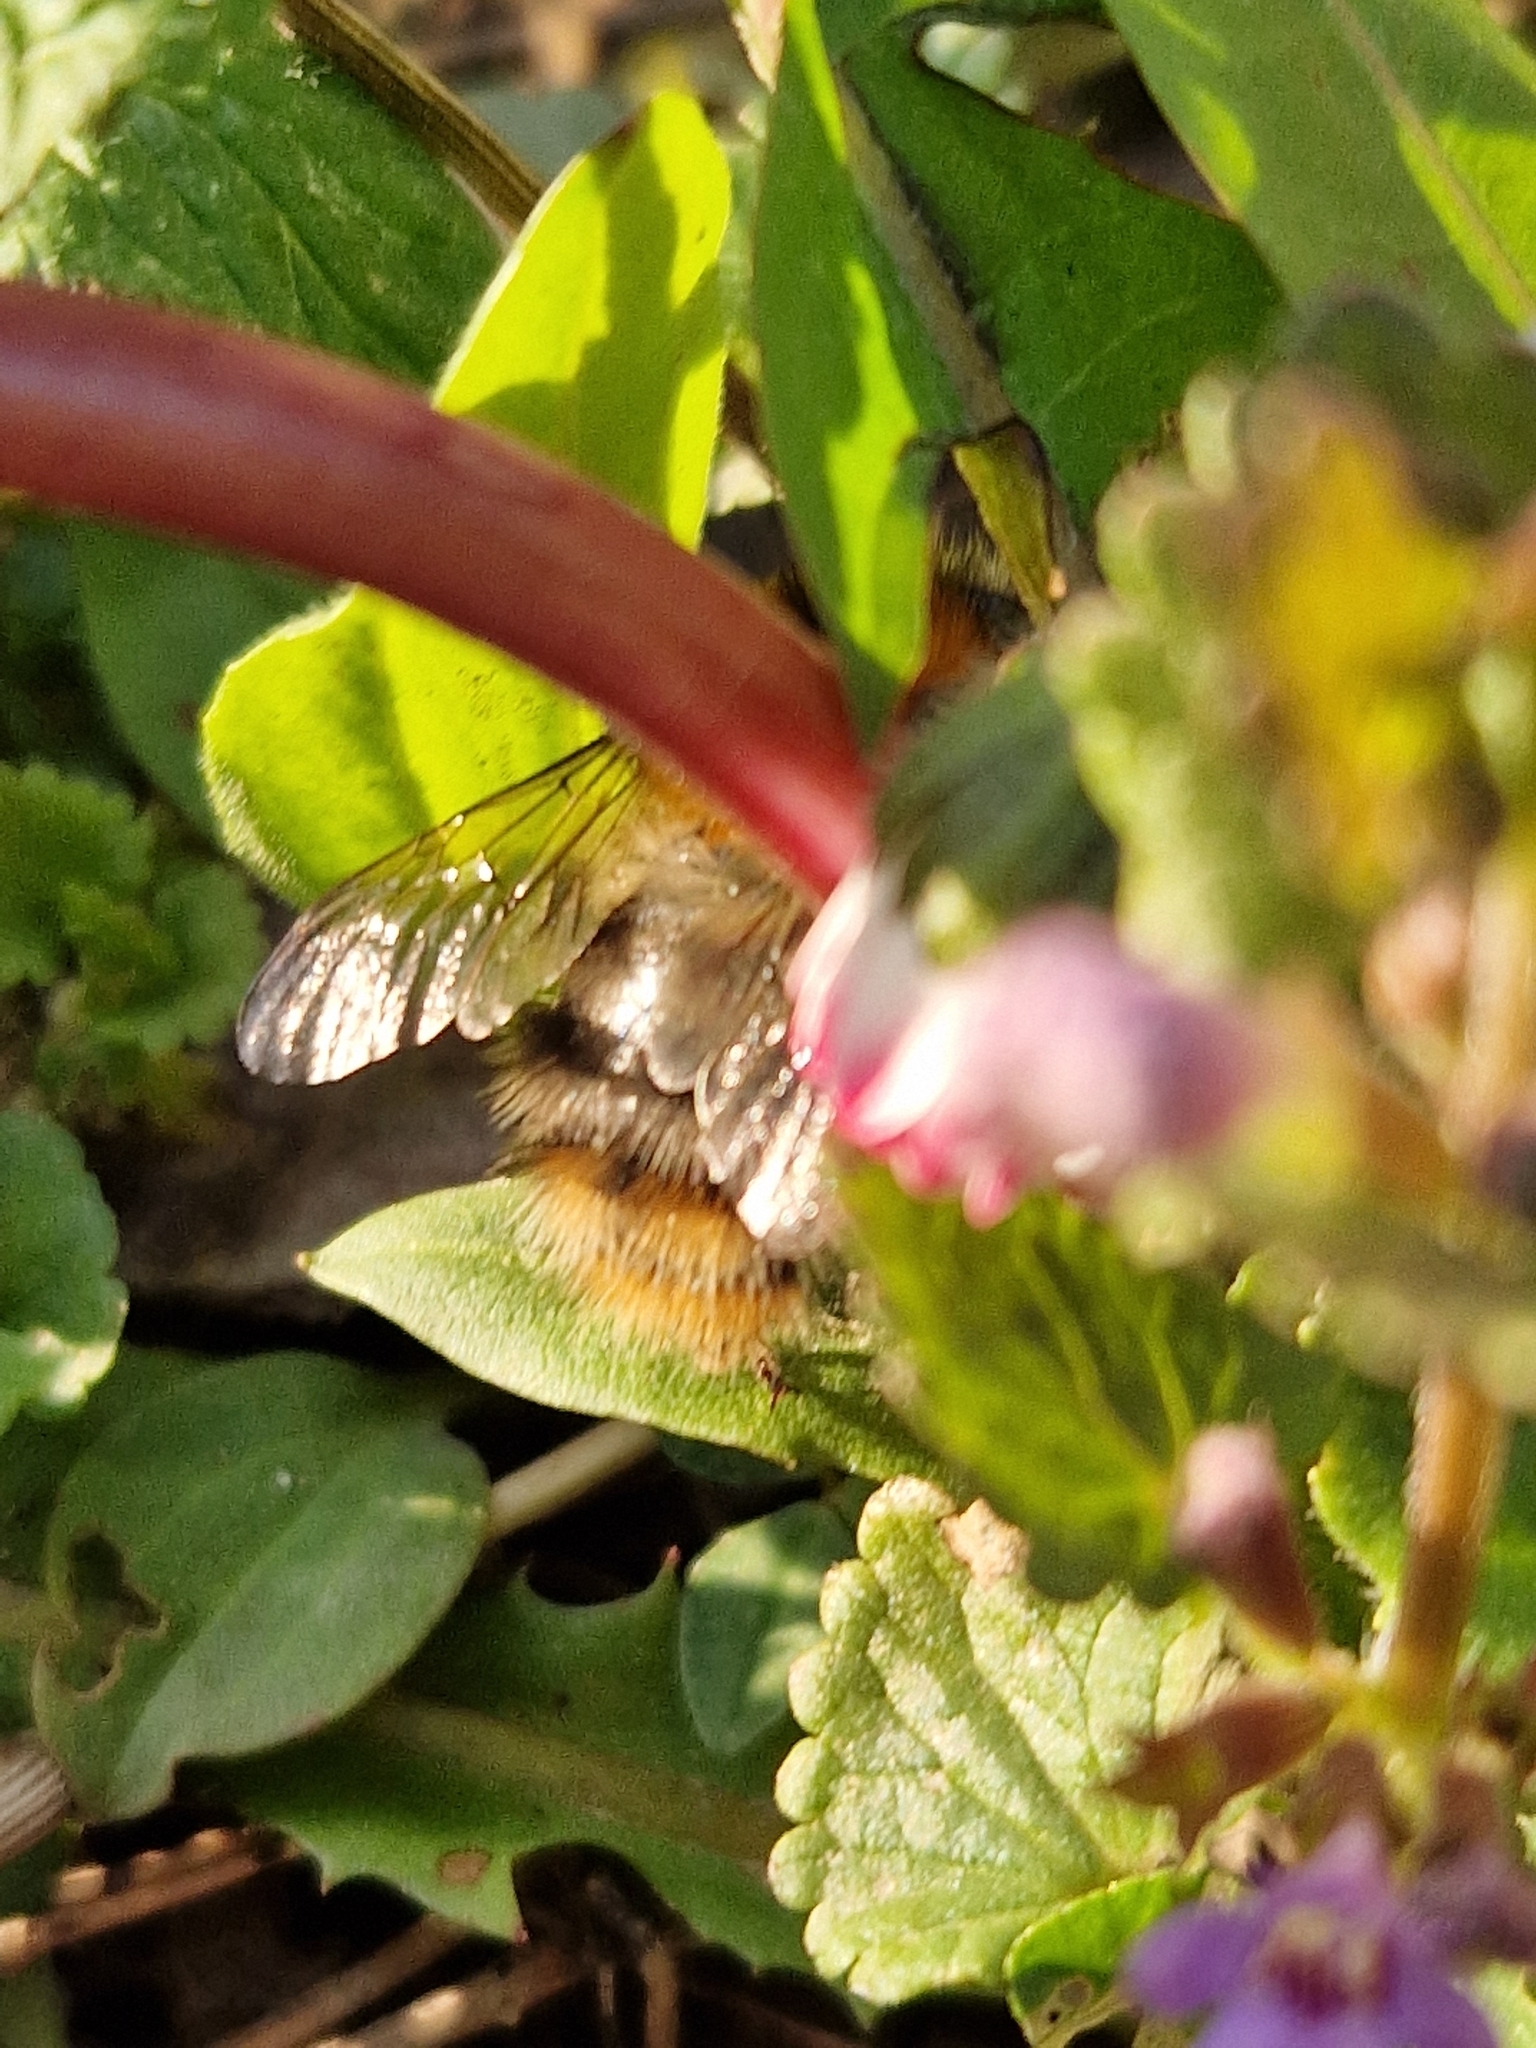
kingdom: Animalia
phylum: Arthropoda
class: Insecta
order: Hymenoptera
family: Apidae
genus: Bombus
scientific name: Bombus pascuorum
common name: Common carder bee
